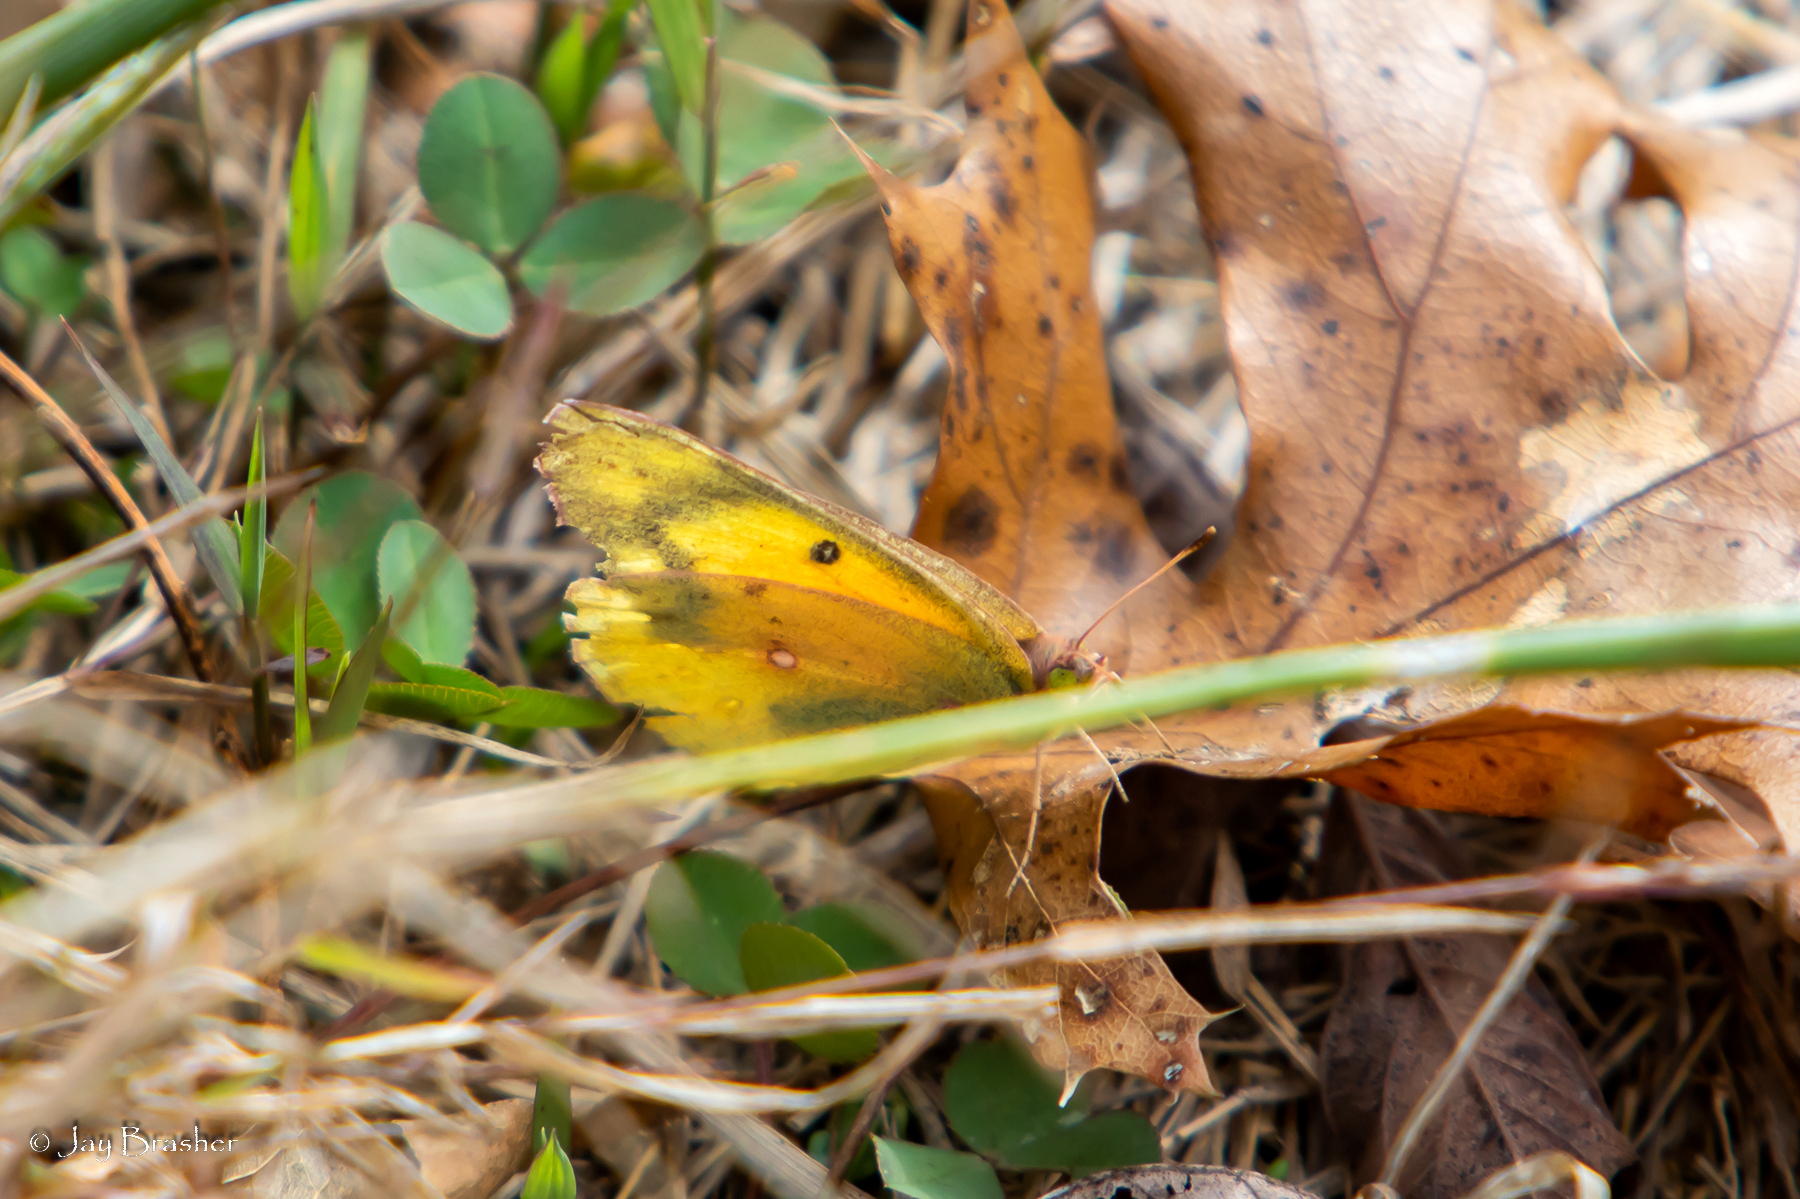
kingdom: Animalia
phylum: Arthropoda
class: Insecta
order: Lepidoptera
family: Pieridae
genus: Colias
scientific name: Colias eurytheme
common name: Alfalfa butterfly
